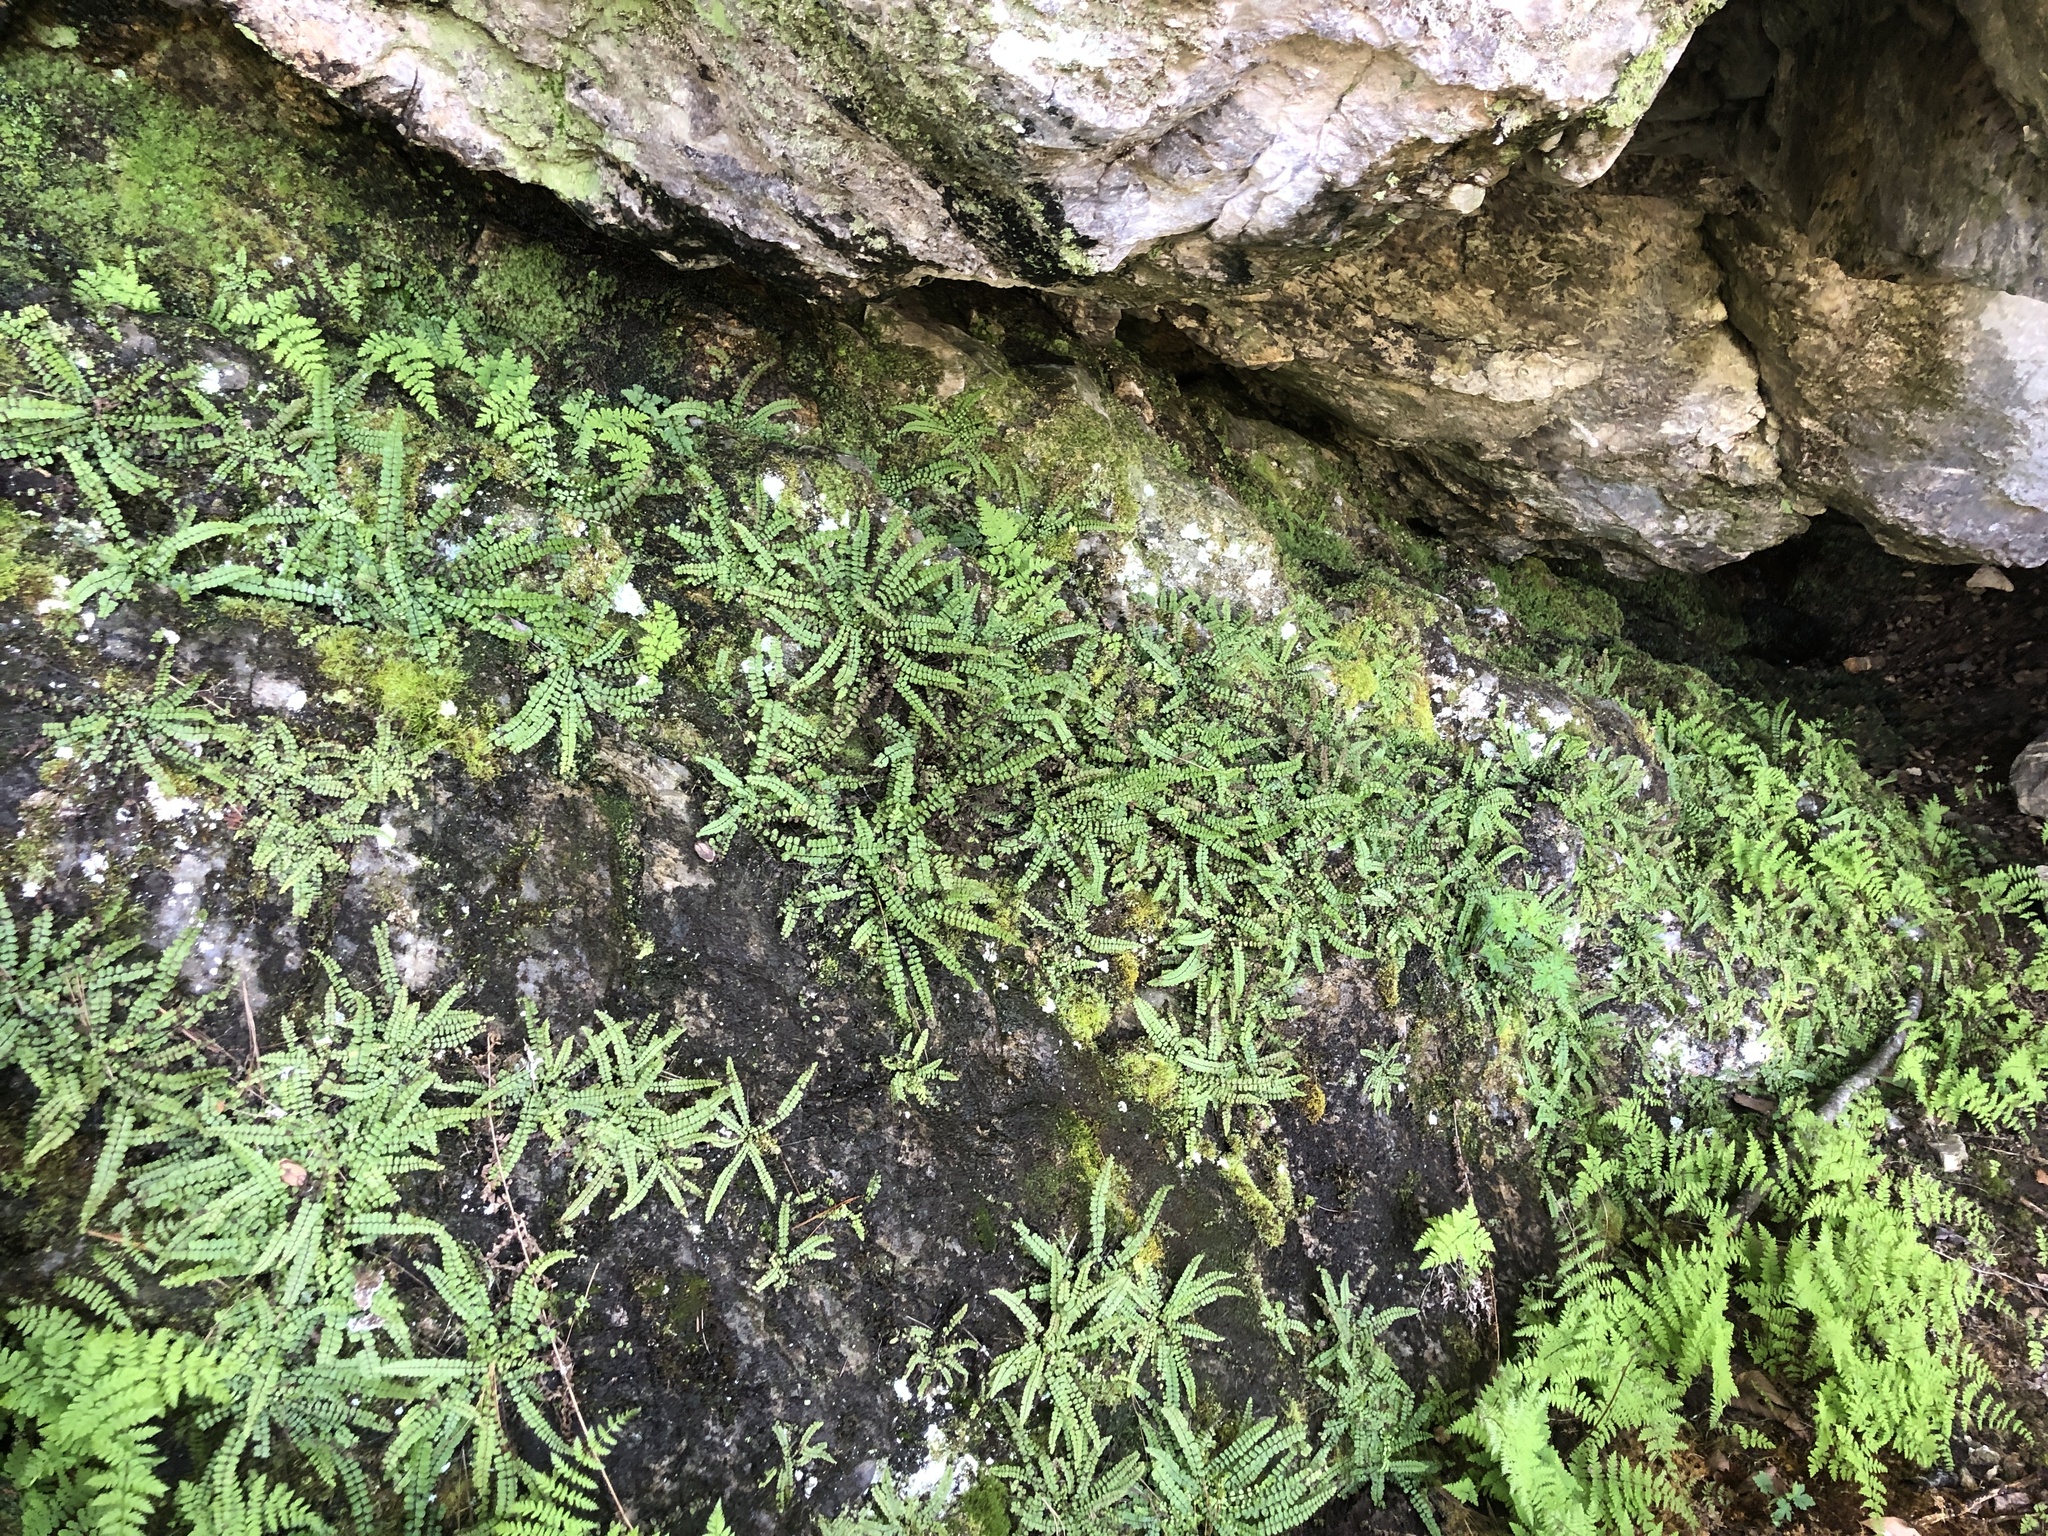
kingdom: Plantae
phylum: Tracheophyta
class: Polypodiopsida
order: Polypodiales
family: Aspleniaceae
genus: Asplenium
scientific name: Asplenium trichomanes
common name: Maidenhair spleenwort
